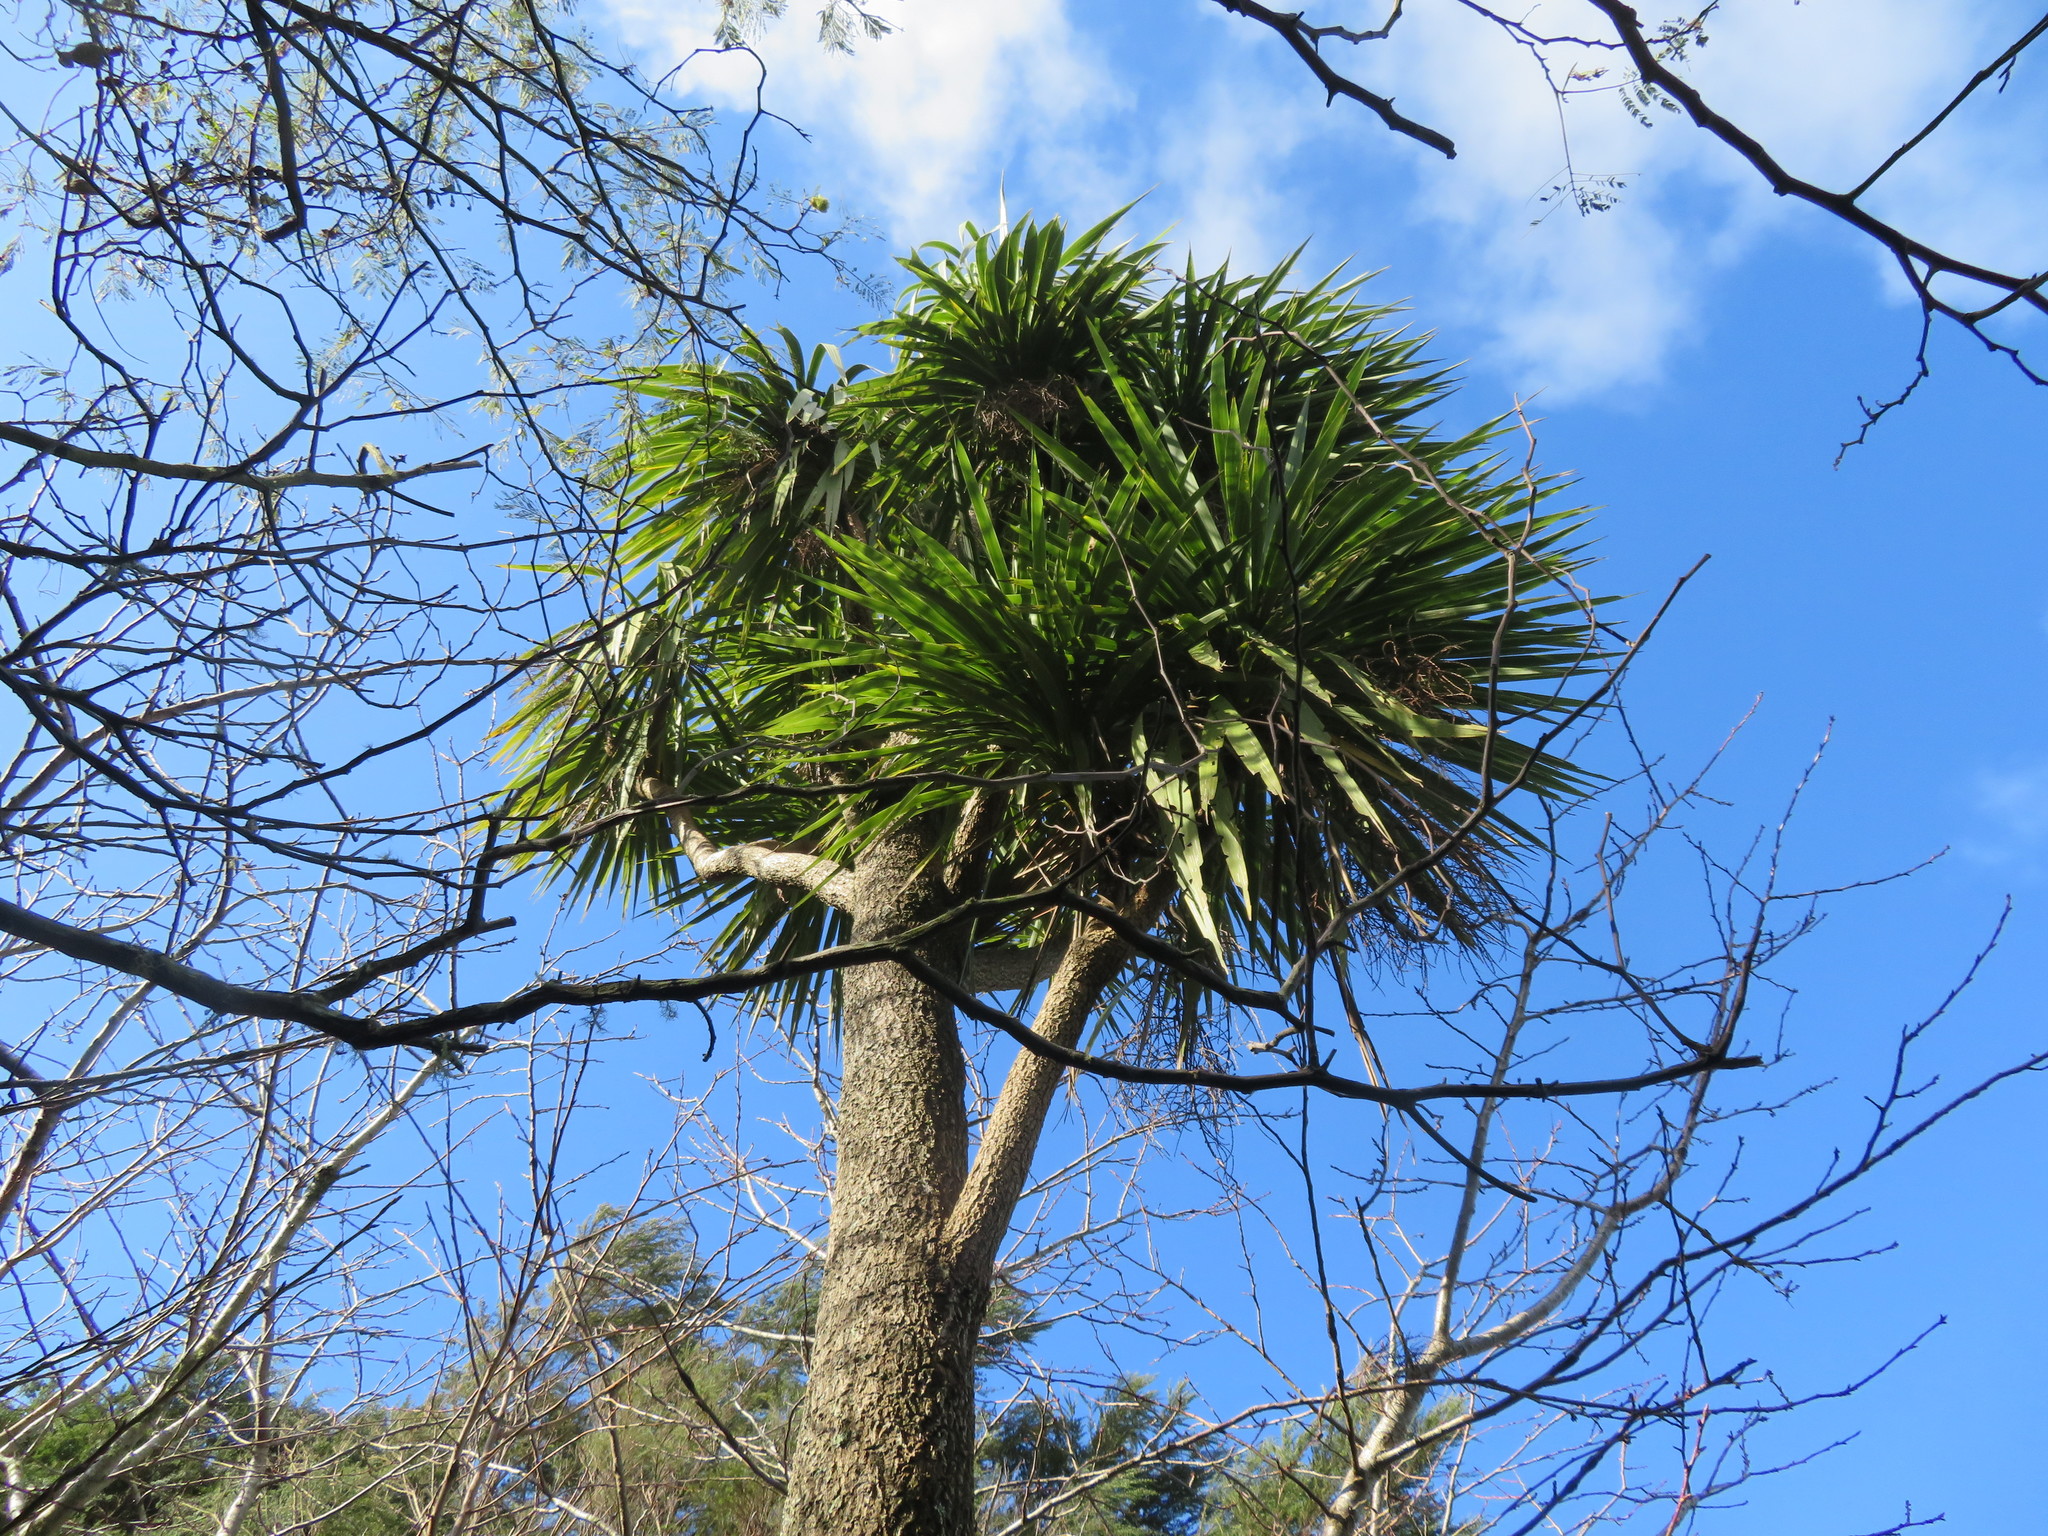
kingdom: Plantae
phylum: Tracheophyta
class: Magnoliopsida
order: Fabales
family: Fabaceae
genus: Paraserianthes
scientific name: Paraserianthes lophantha
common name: Plume albizia
